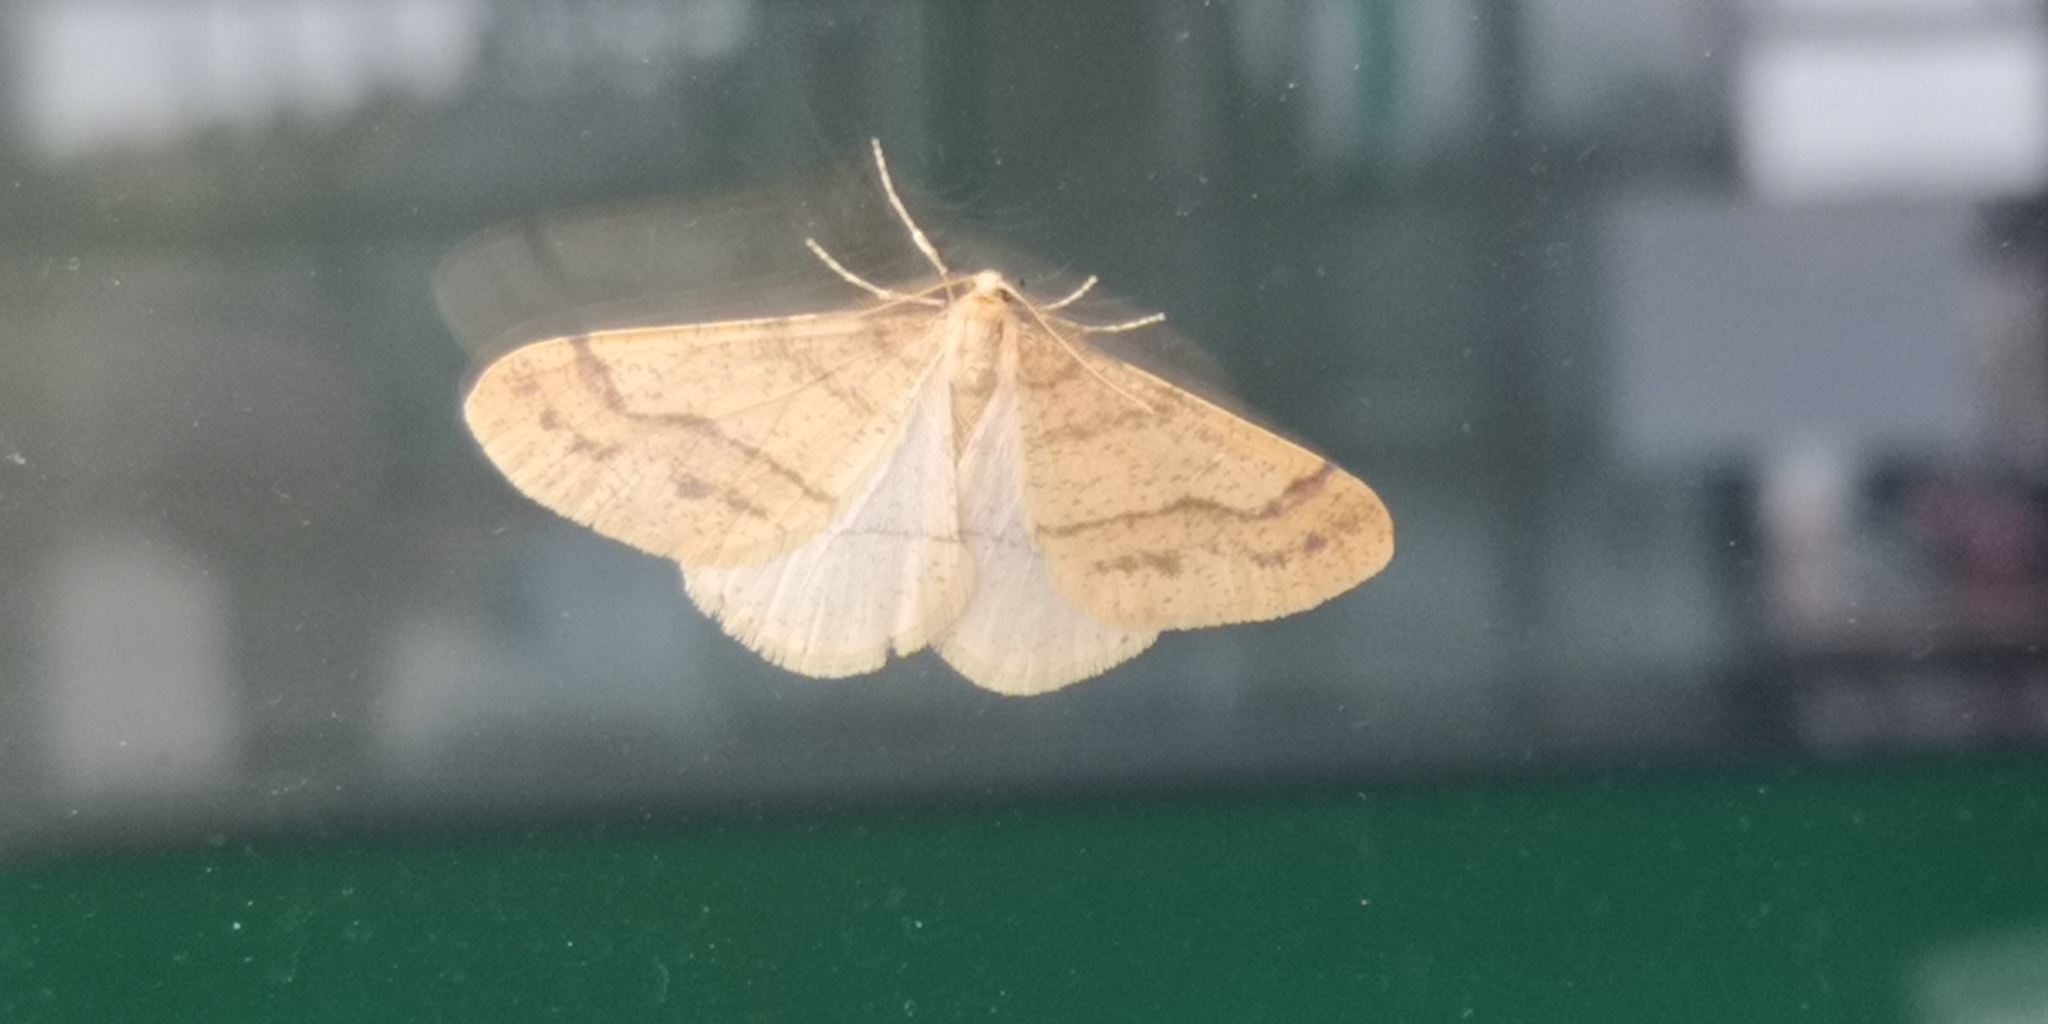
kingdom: Animalia
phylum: Arthropoda
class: Insecta
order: Lepidoptera
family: Geometridae
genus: Agriopis
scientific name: Agriopis aurantiaria
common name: Scarce umber
